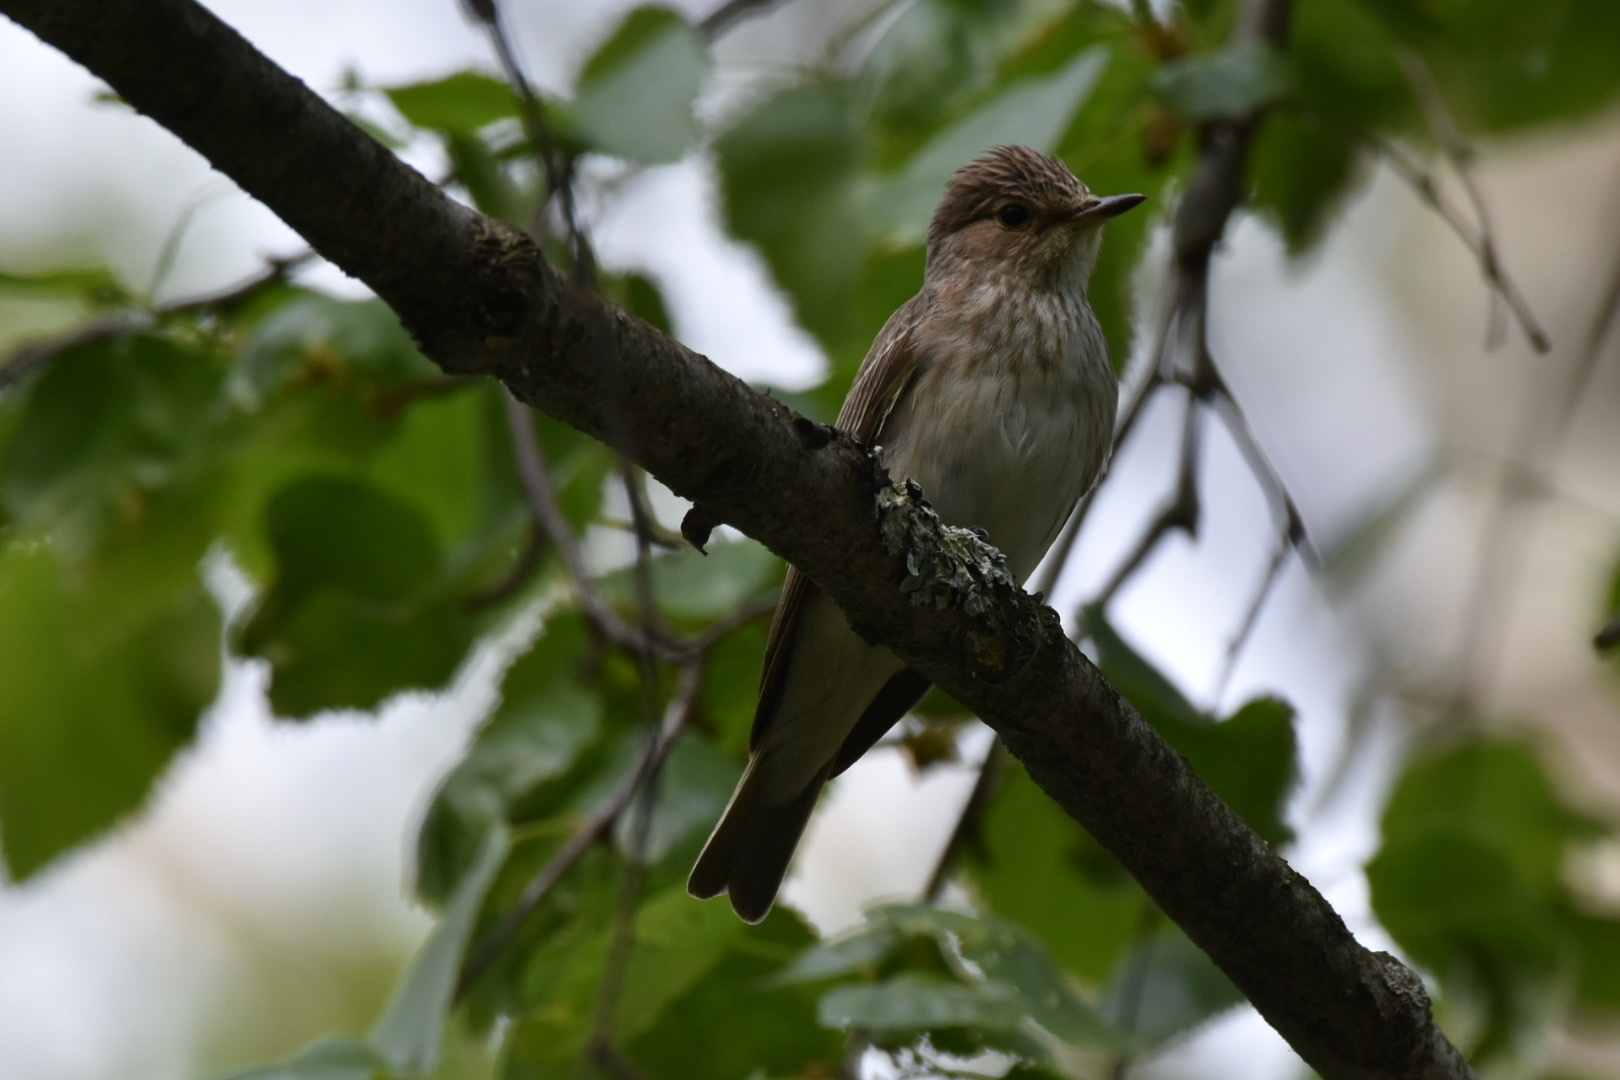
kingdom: Animalia
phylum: Chordata
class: Aves
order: Passeriformes
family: Muscicapidae
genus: Muscicapa
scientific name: Muscicapa striata
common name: Spotted flycatcher
